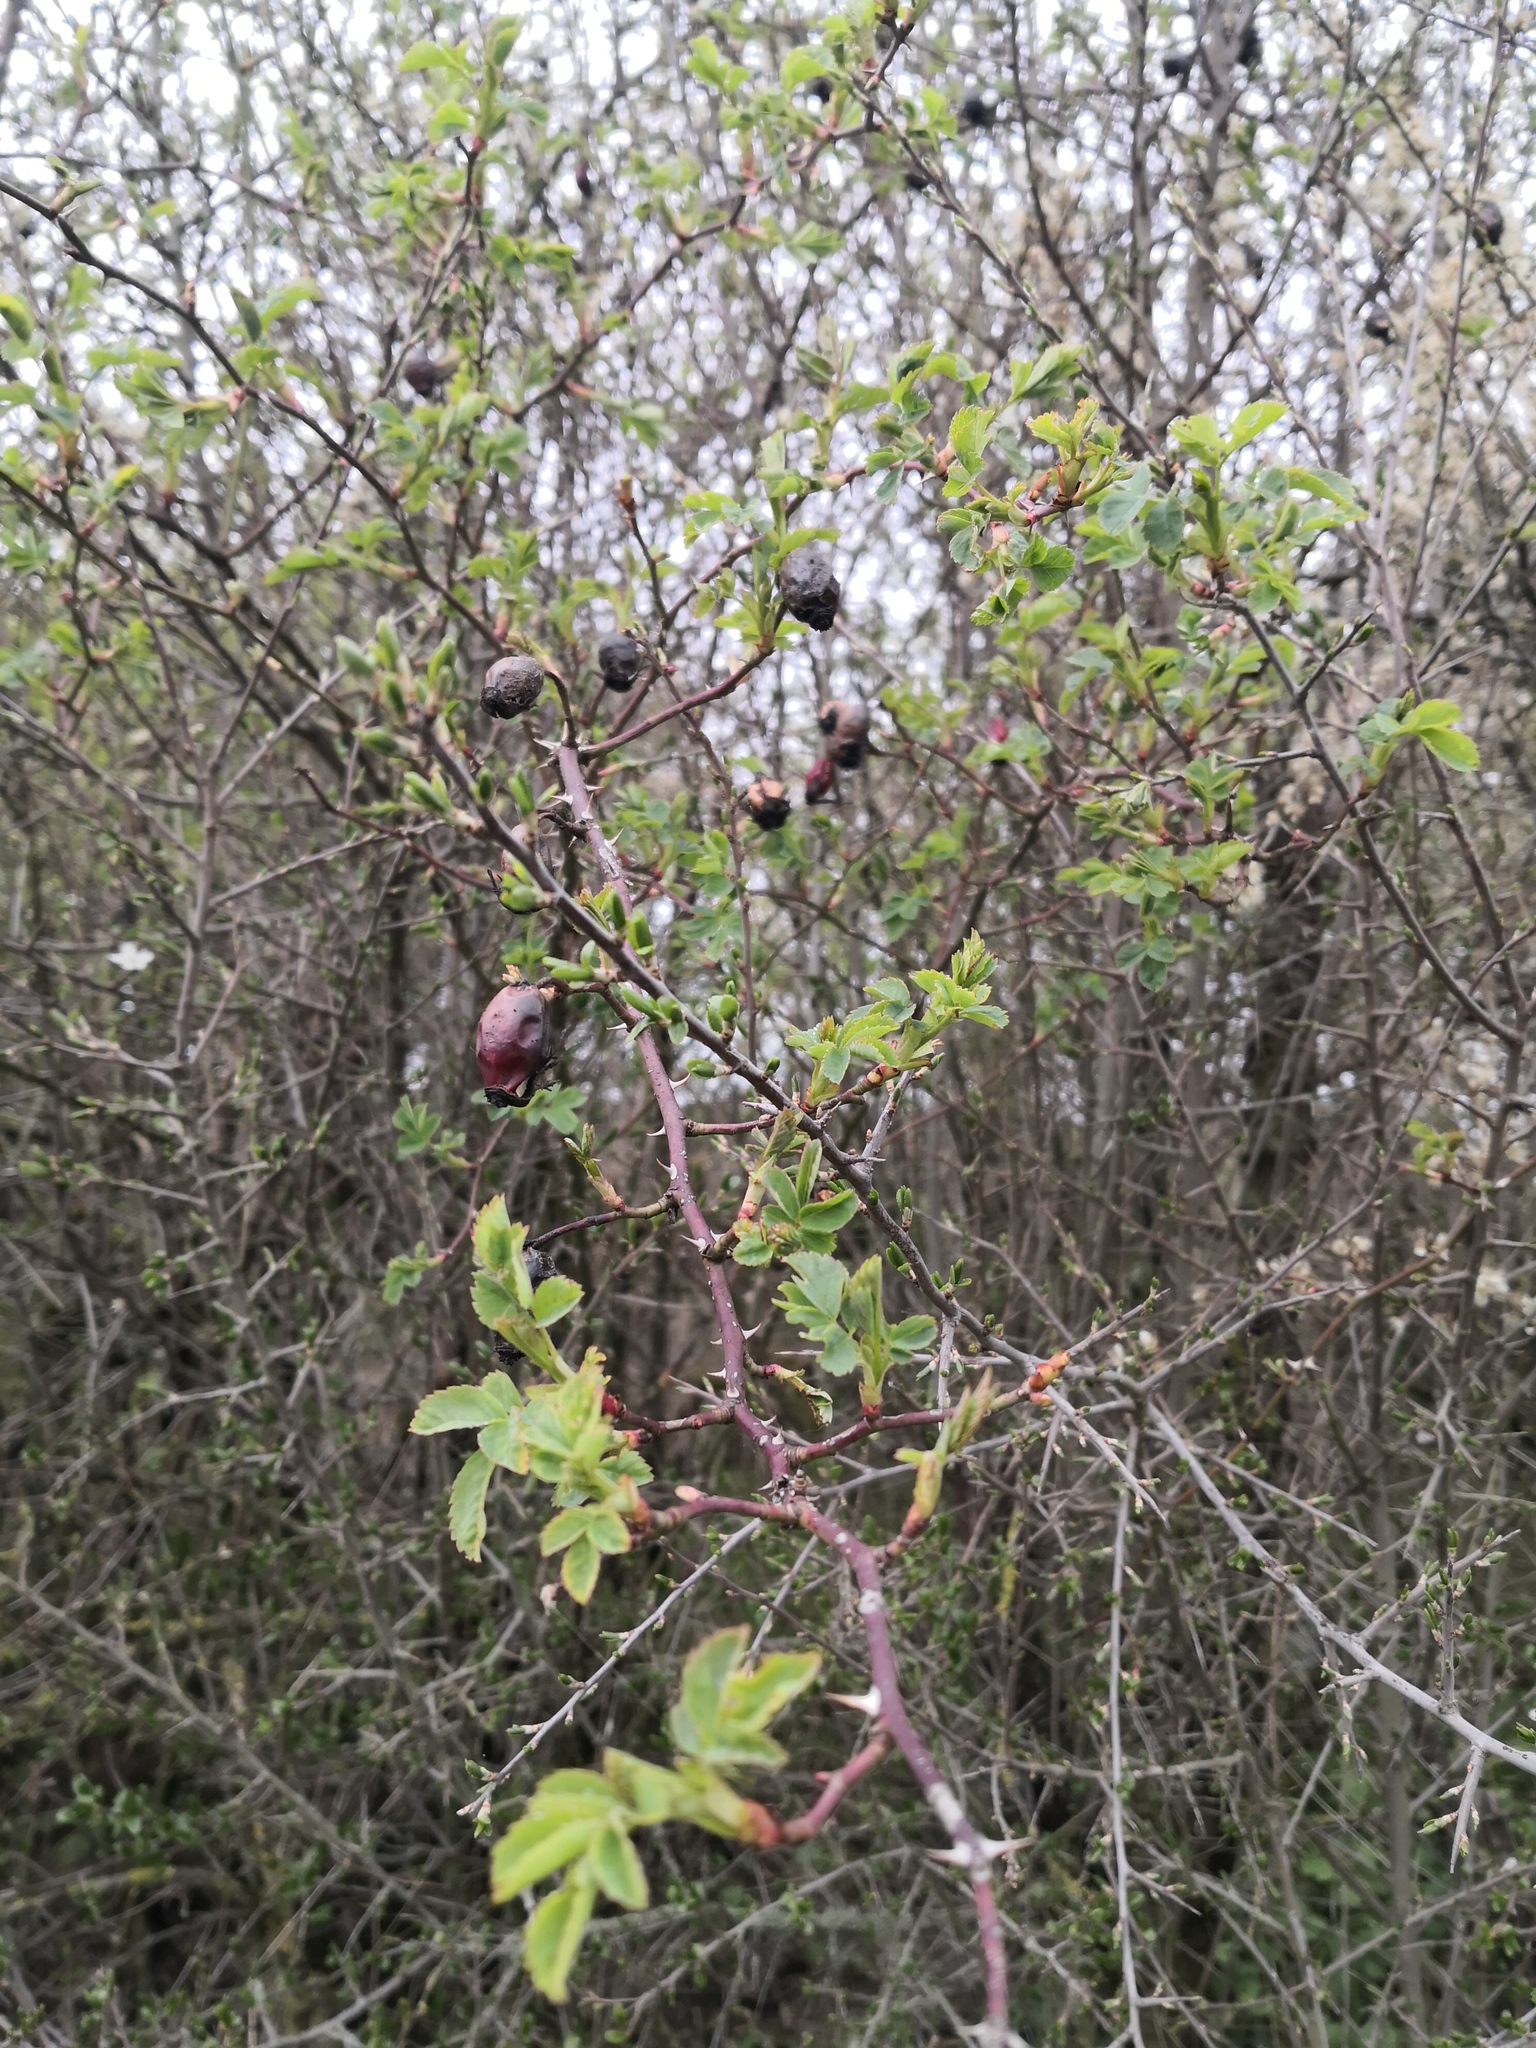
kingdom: Plantae
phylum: Tracheophyta
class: Magnoliopsida
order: Rosales
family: Rosaceae
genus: Rosa
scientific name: Rosa canina
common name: Dog rose
